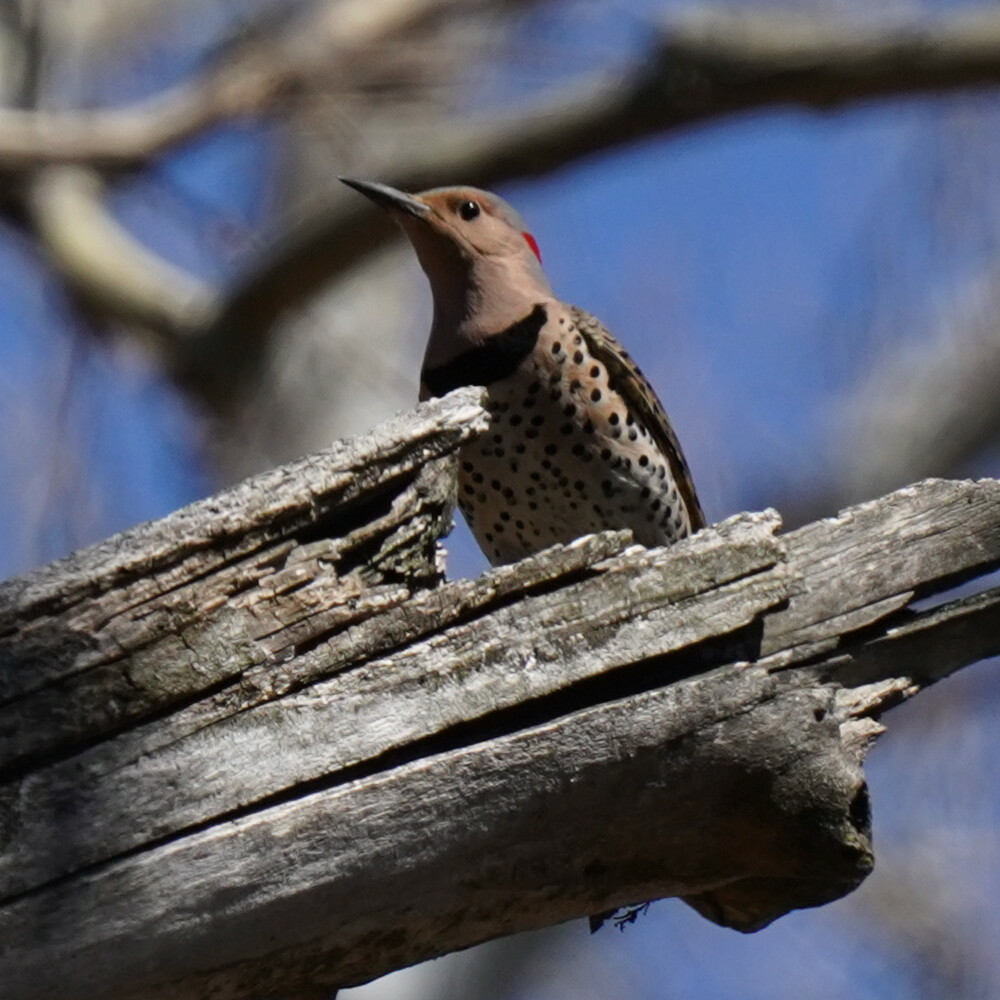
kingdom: Animalia
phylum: Chordata
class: Aves
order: Piciformes
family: Picidae
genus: Colaptes
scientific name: Colaptes auratus
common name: Northern flicker
